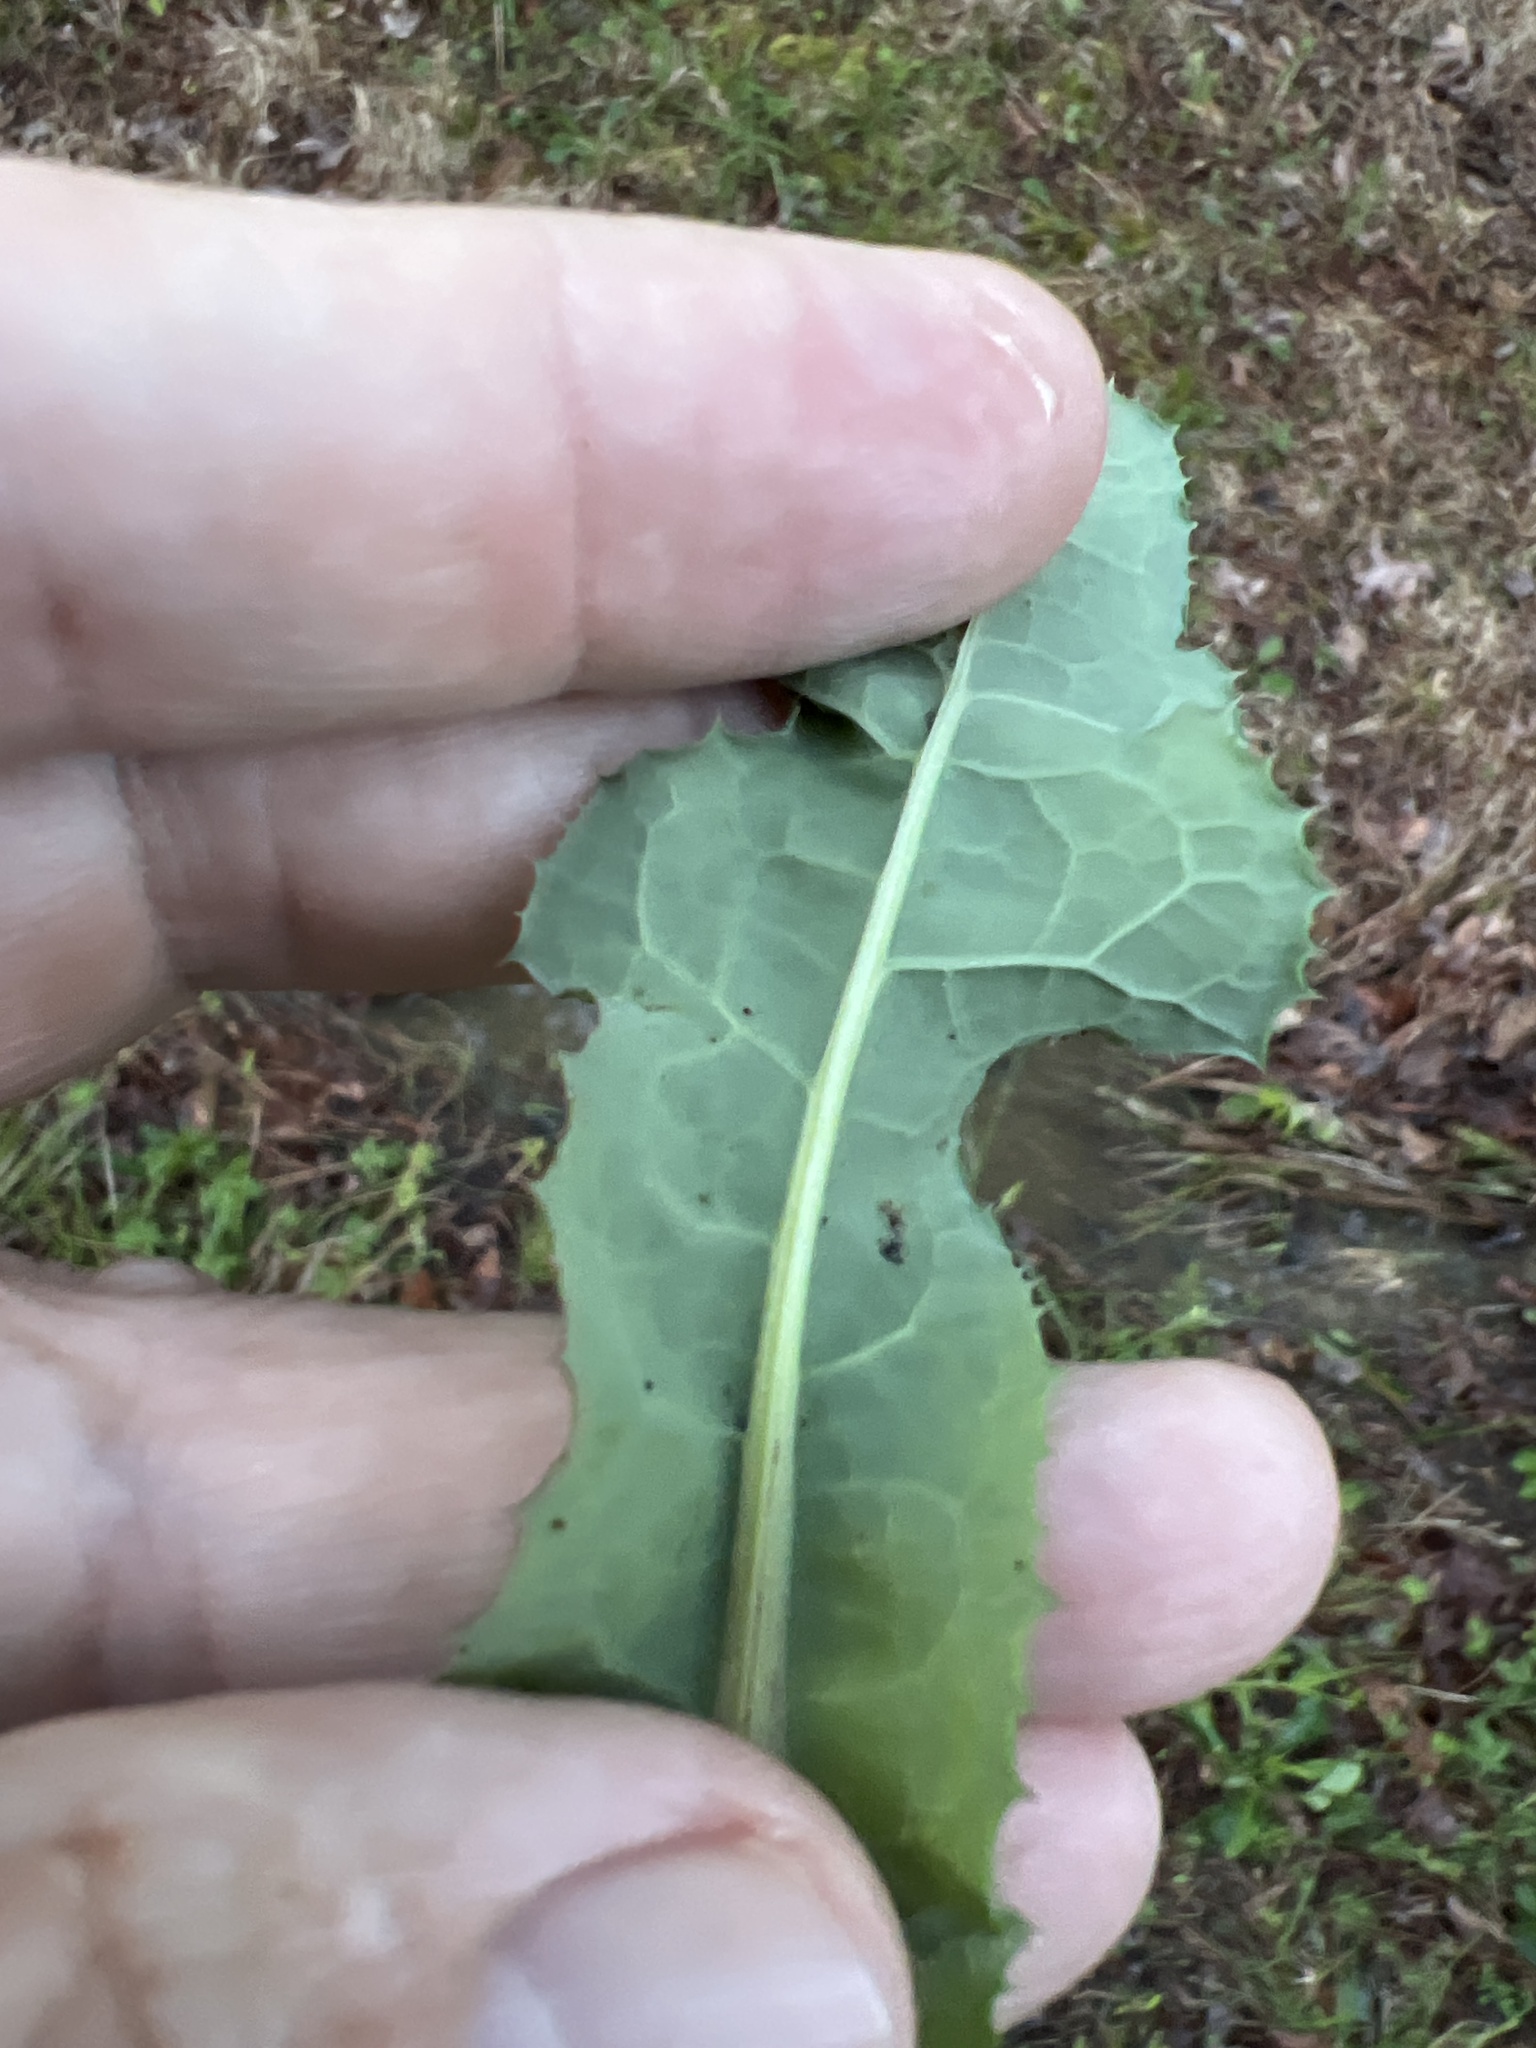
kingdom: Plantae
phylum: Tracheophyta
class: Magnoliopsida
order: Asterales
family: Asteraceae
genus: Sonchus
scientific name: Sonchus asper
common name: Prickly sow-thistle
